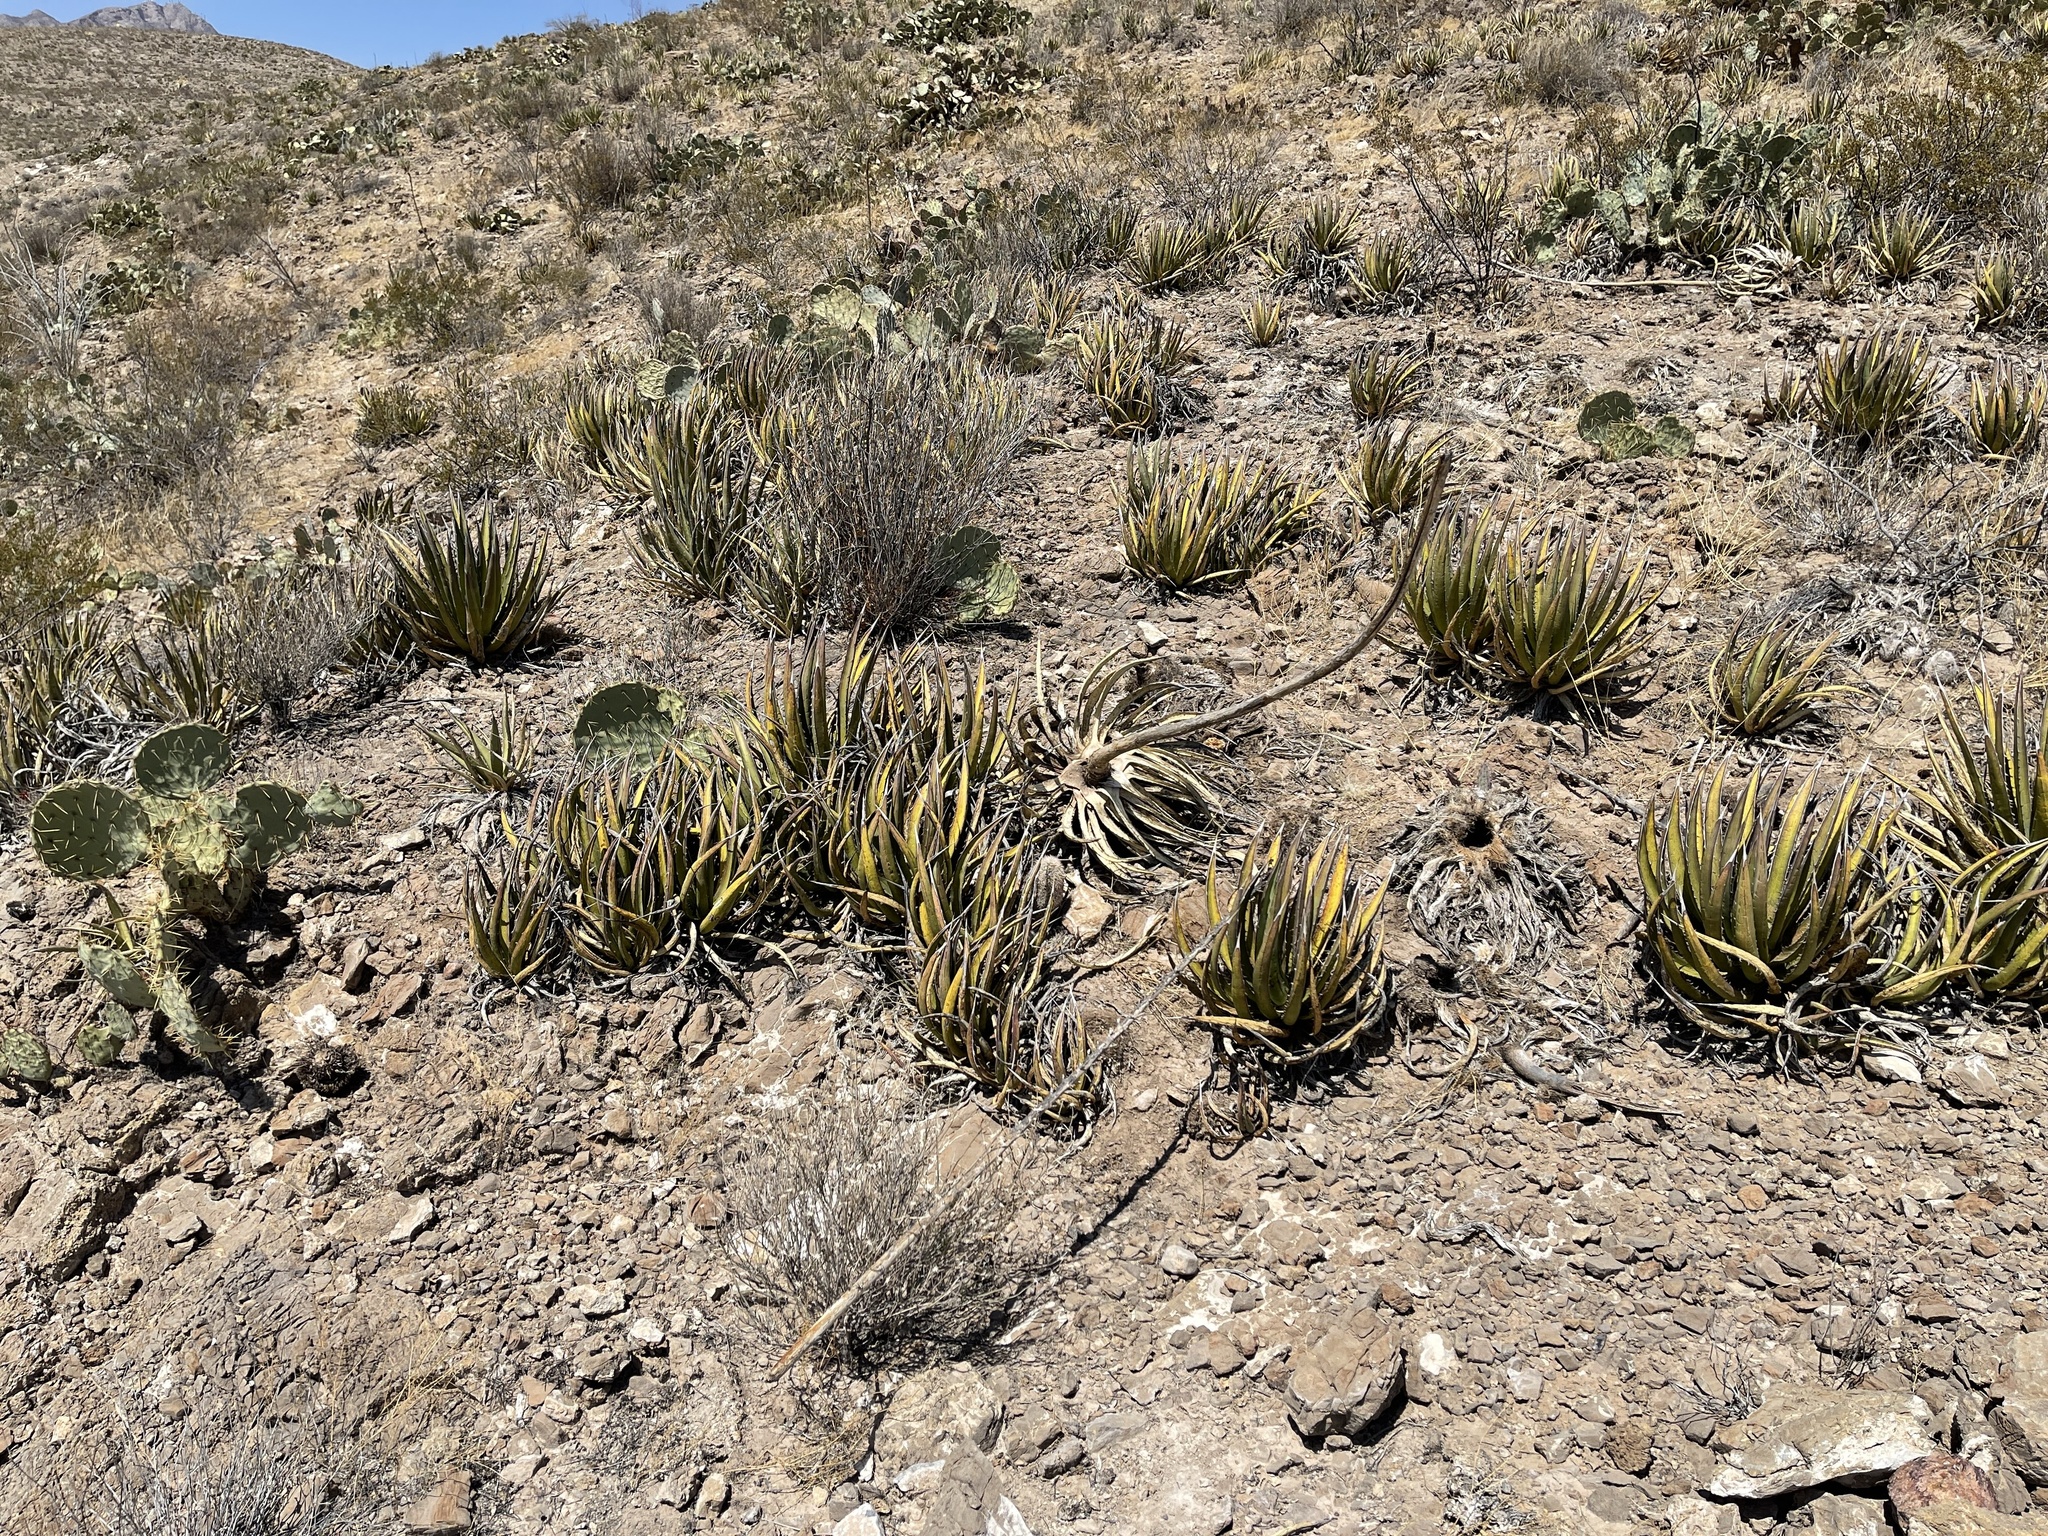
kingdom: Plantae
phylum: Tracheophyta
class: Liliopsida
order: Asparagales
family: Asparagaceae
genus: Agave
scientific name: Agave lechuguilla
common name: Lecheguilla agave
